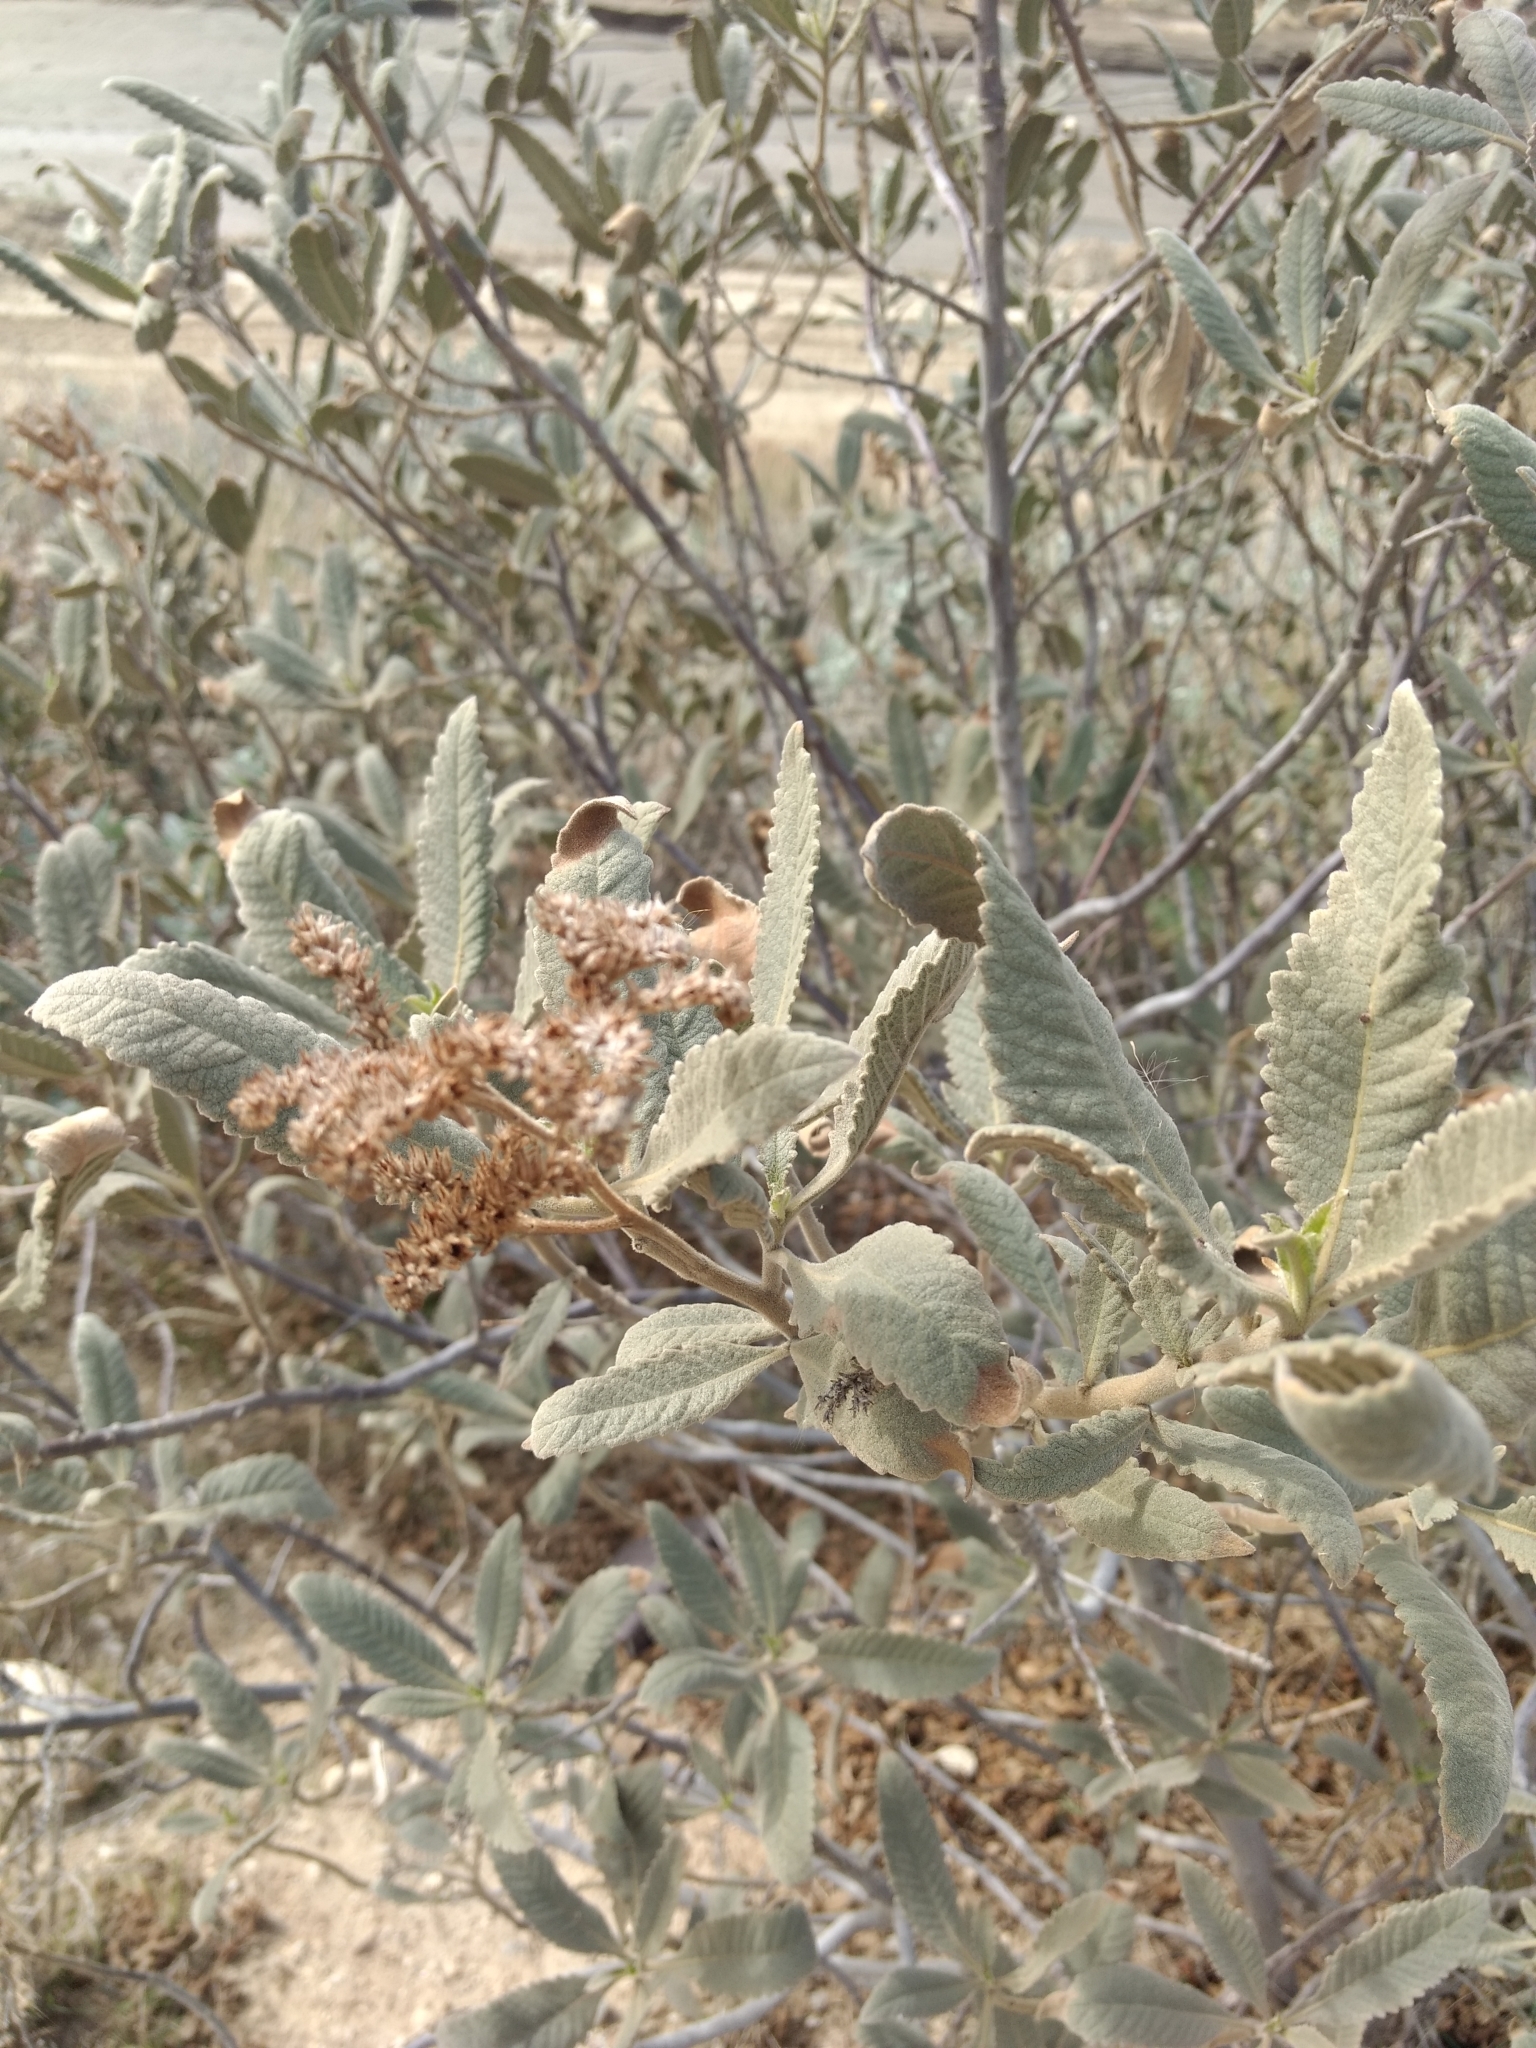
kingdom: Plantae
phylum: Tracheophyta
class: Magnoliopsida
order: Boraginales
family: Namaceae
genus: Eriodictyon
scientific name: Eriodictyon crassifolium
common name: Thick-leaf yerba-santa
